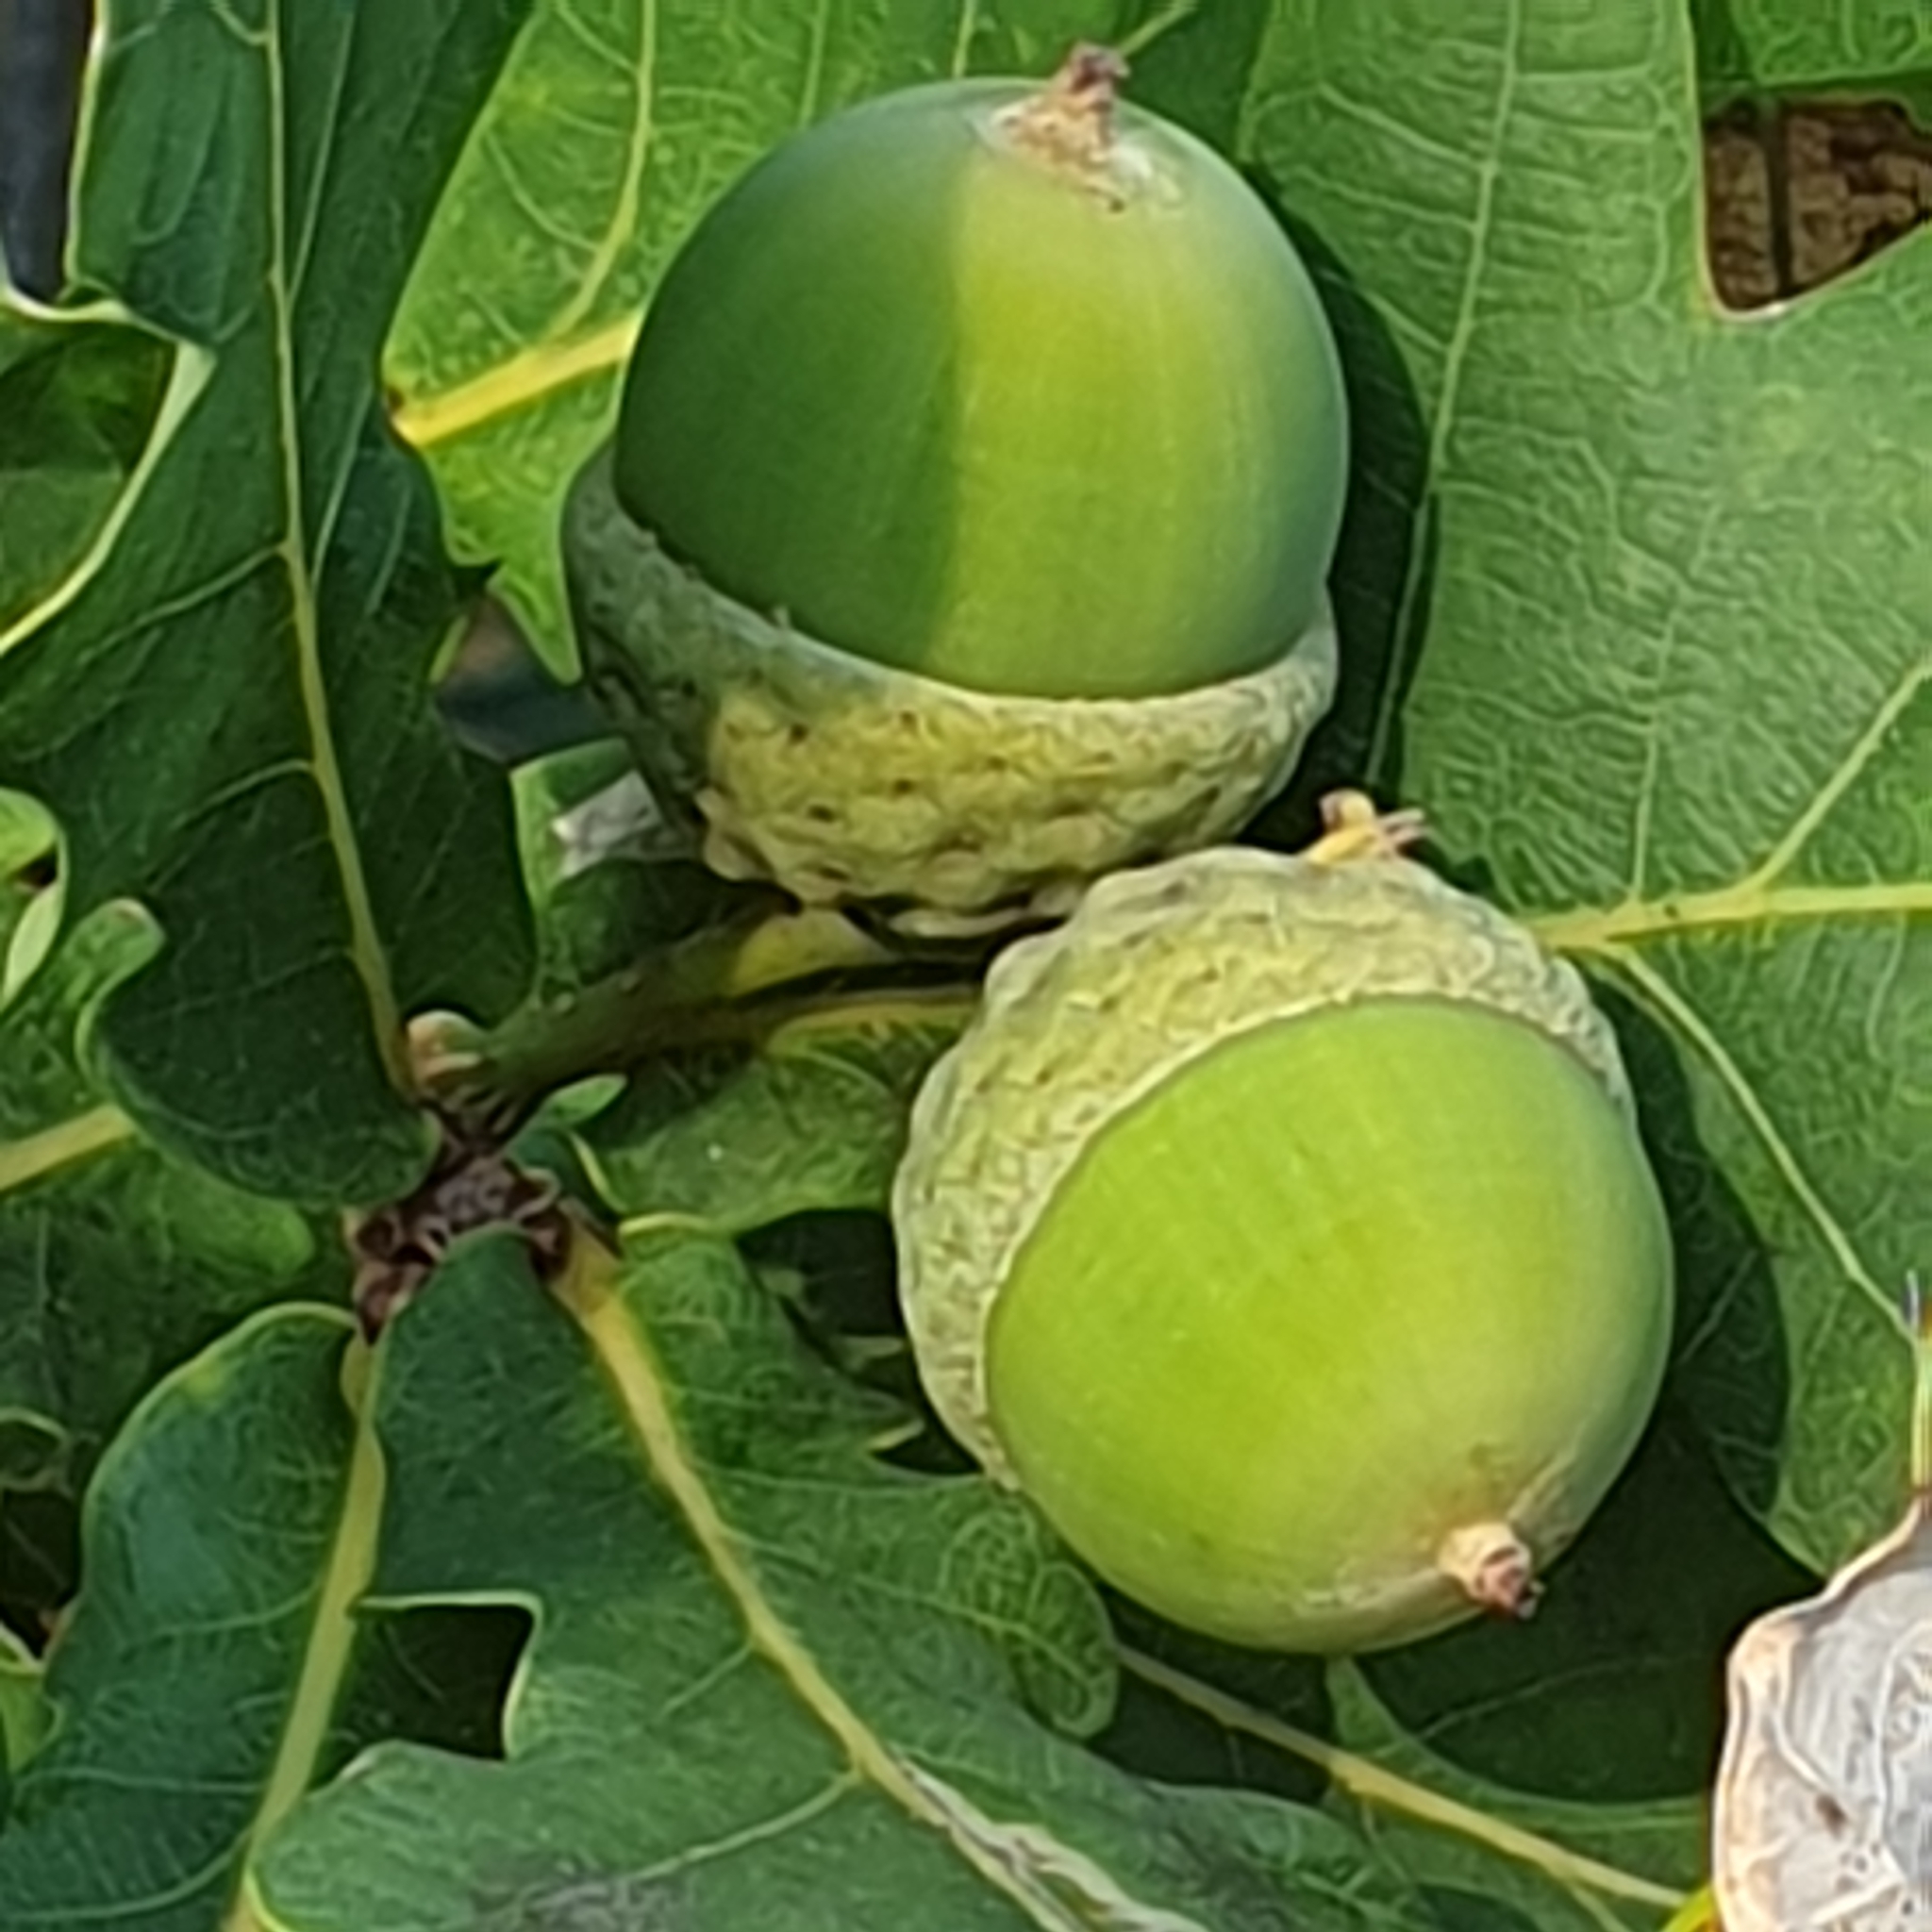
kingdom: Plantae
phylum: Tracheophyta
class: Magnoliopsida
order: Fagales
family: Fagaceae
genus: Quercus
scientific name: Quercus robur
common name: Pedunculate oak
